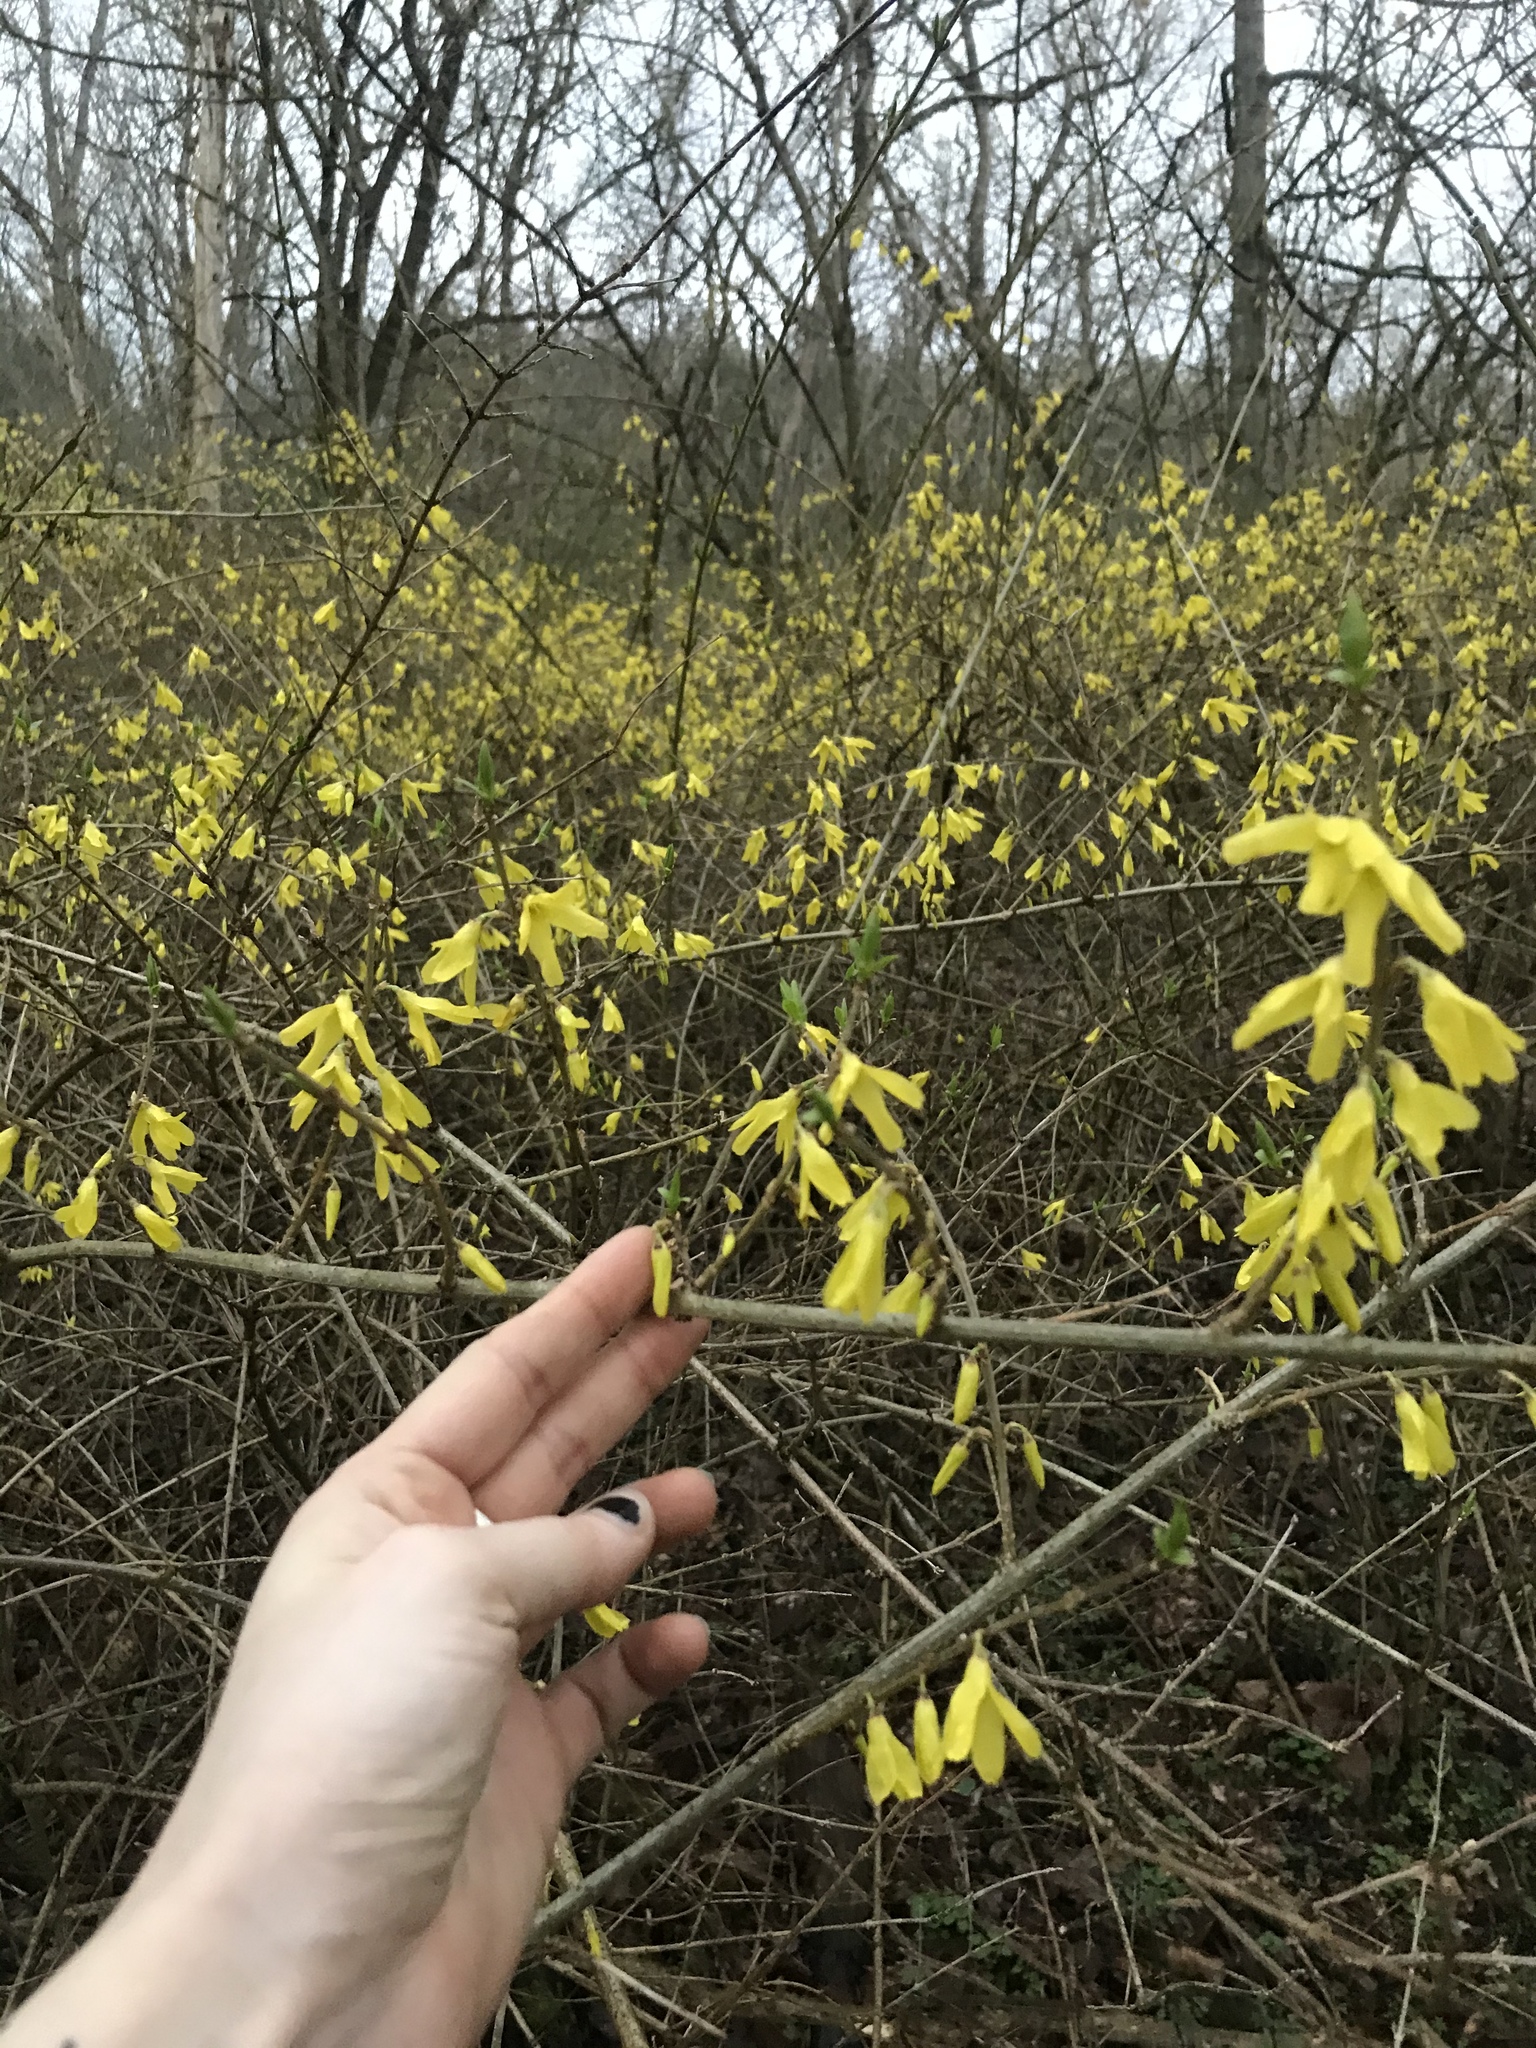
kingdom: Plantae
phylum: Tracheophyta
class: Magnoliopsida
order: Lamiales
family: Oleaceae
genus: Forsythia
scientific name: Forsythia intermedia
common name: Forsythia
